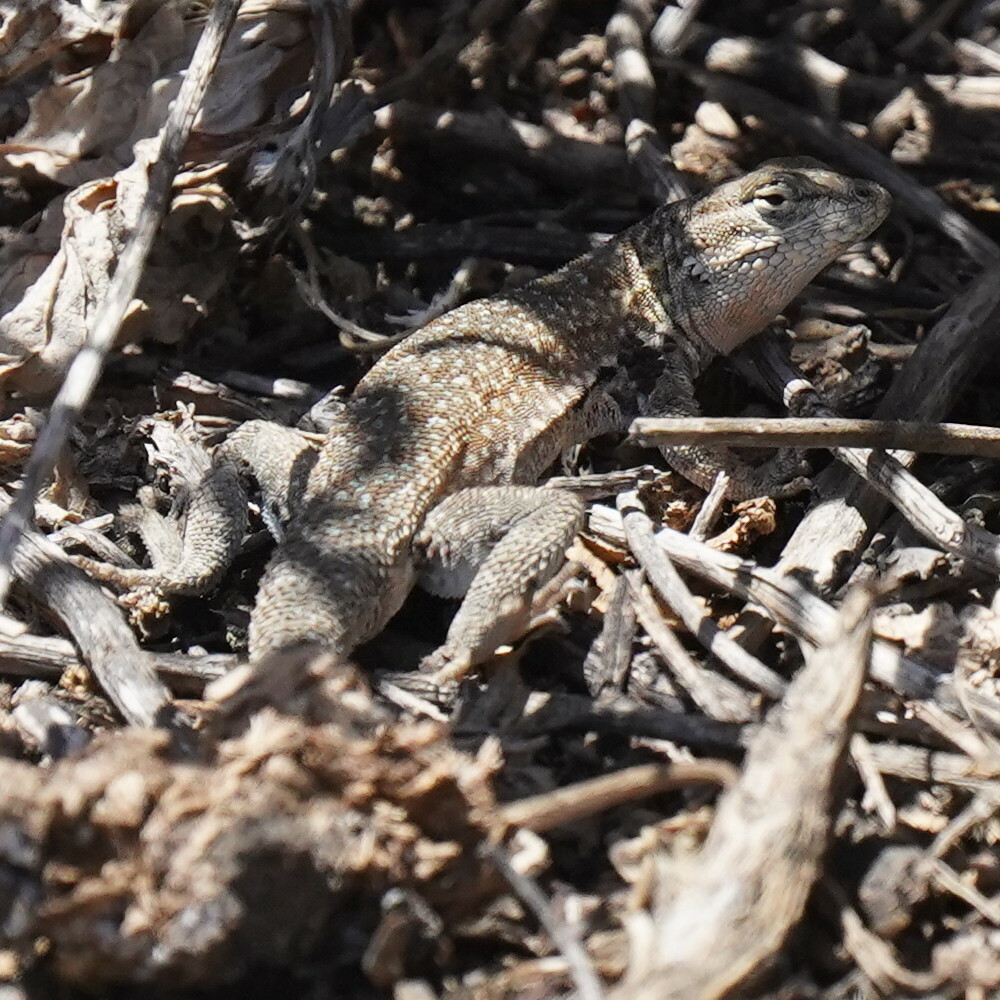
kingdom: Animalia
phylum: Chordata
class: Squamata
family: Phrynosomatidae
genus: Uta
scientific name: Uta stansburiana
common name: Side-blotched lizard
